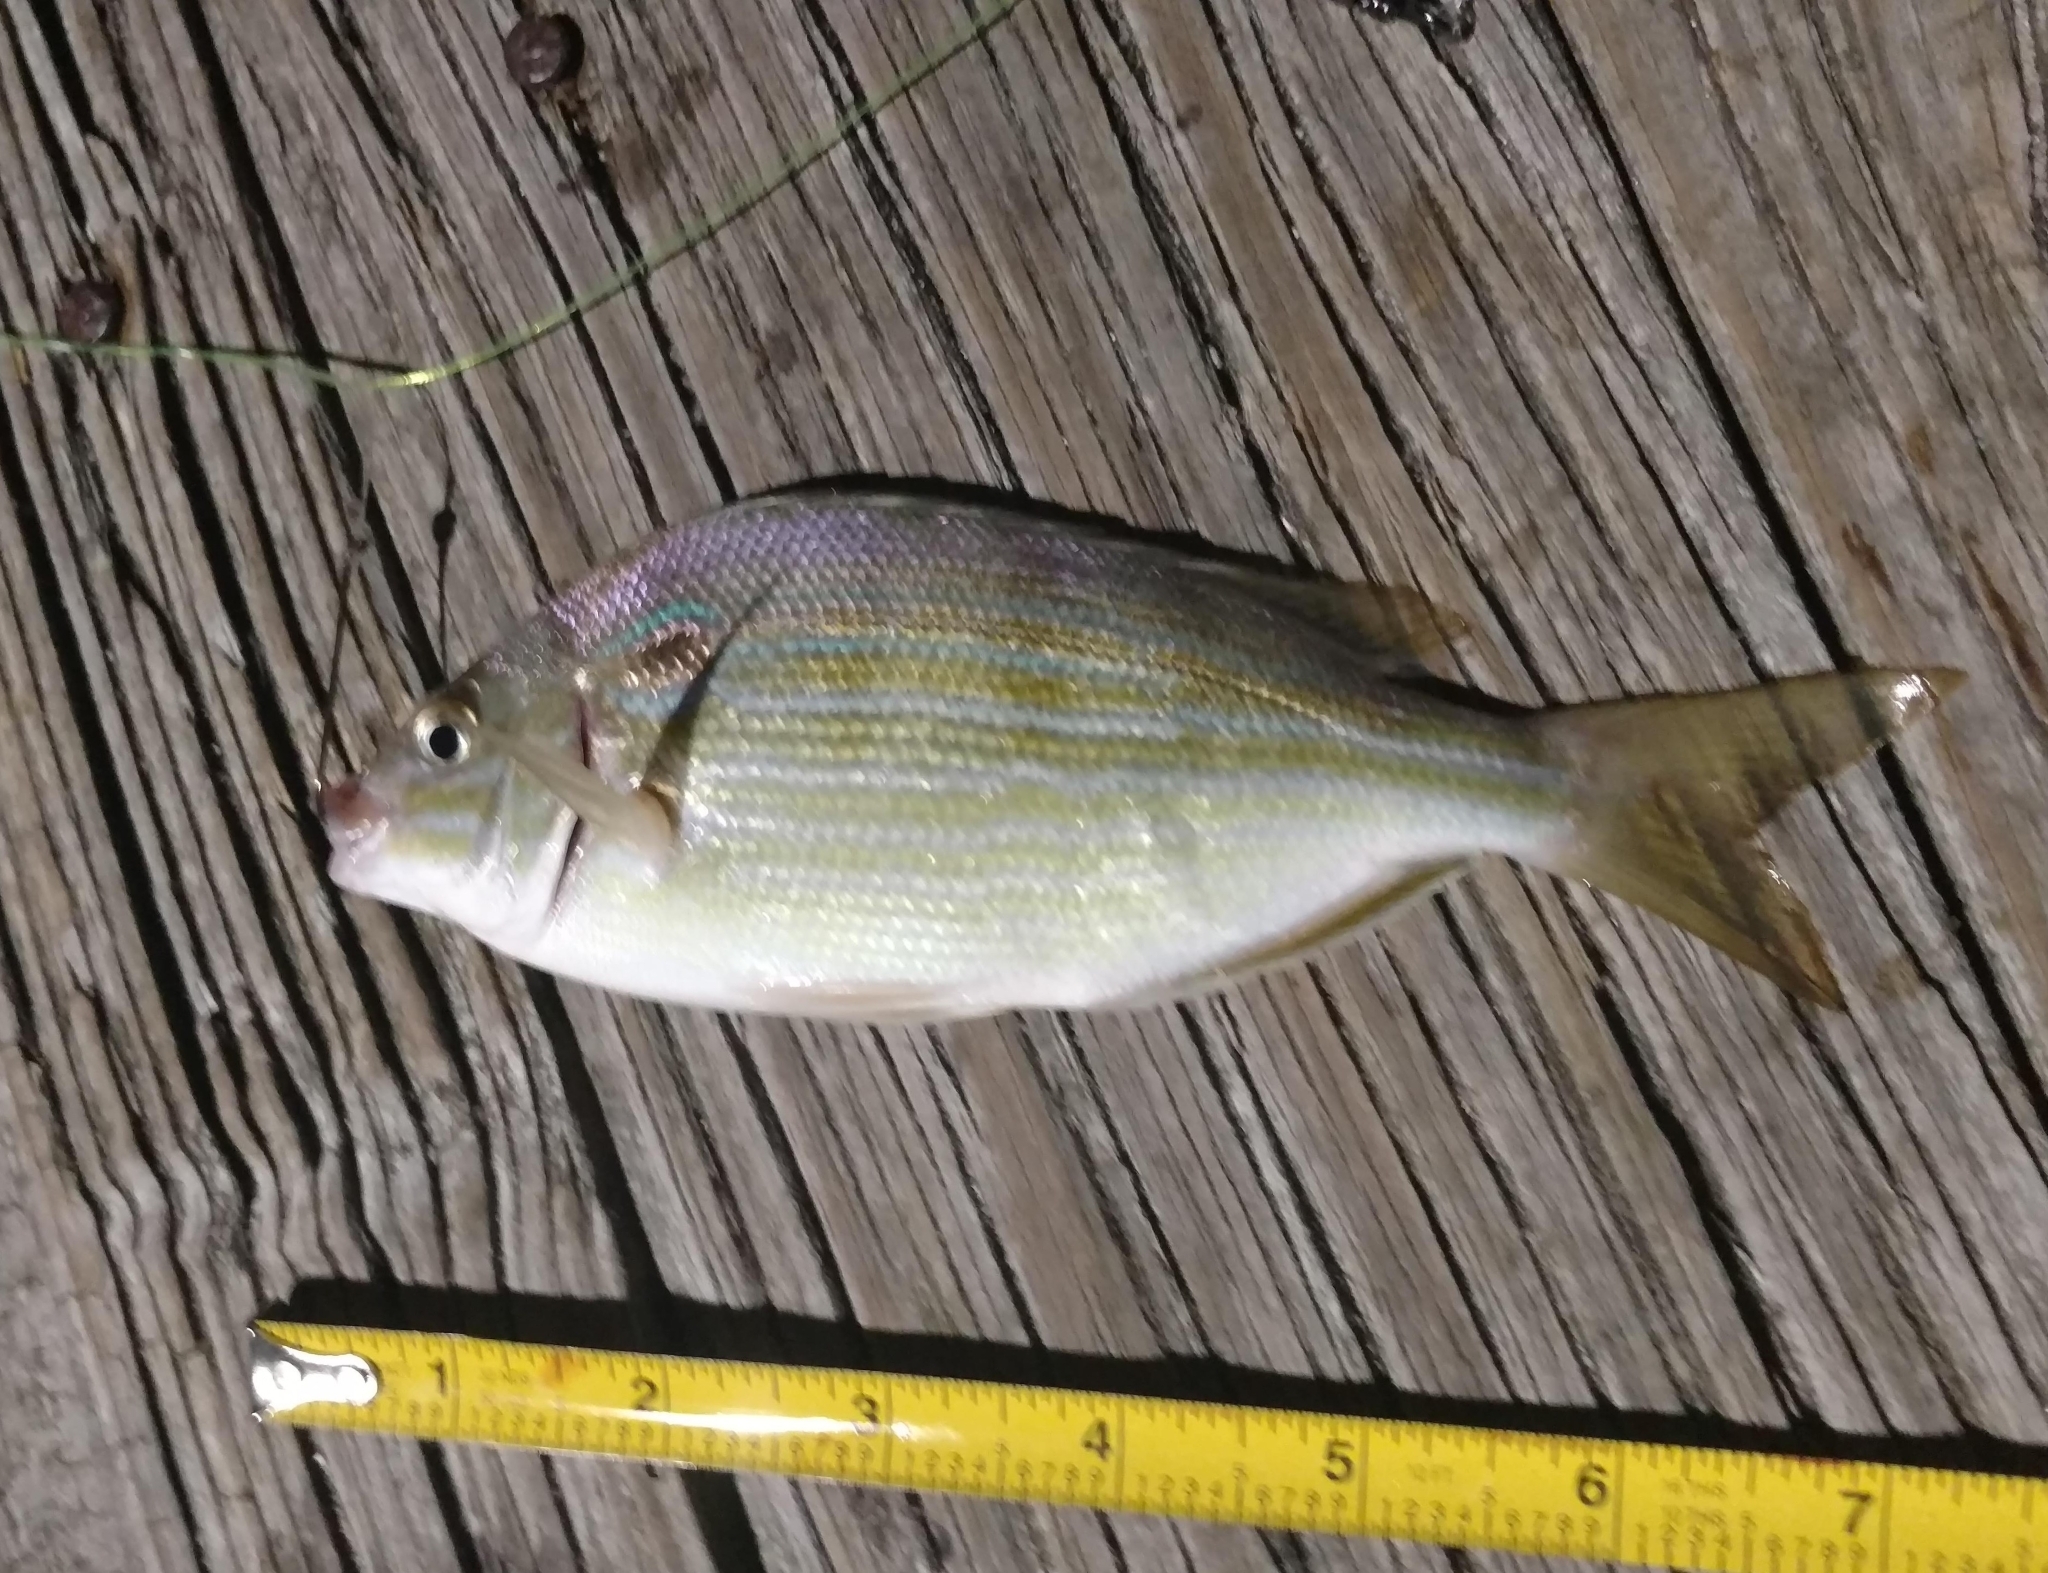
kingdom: Animalia
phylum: Chordata
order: Perciformes
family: Sparidae
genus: Lagodon
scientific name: Lagodon rhomboides
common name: Pinfish
